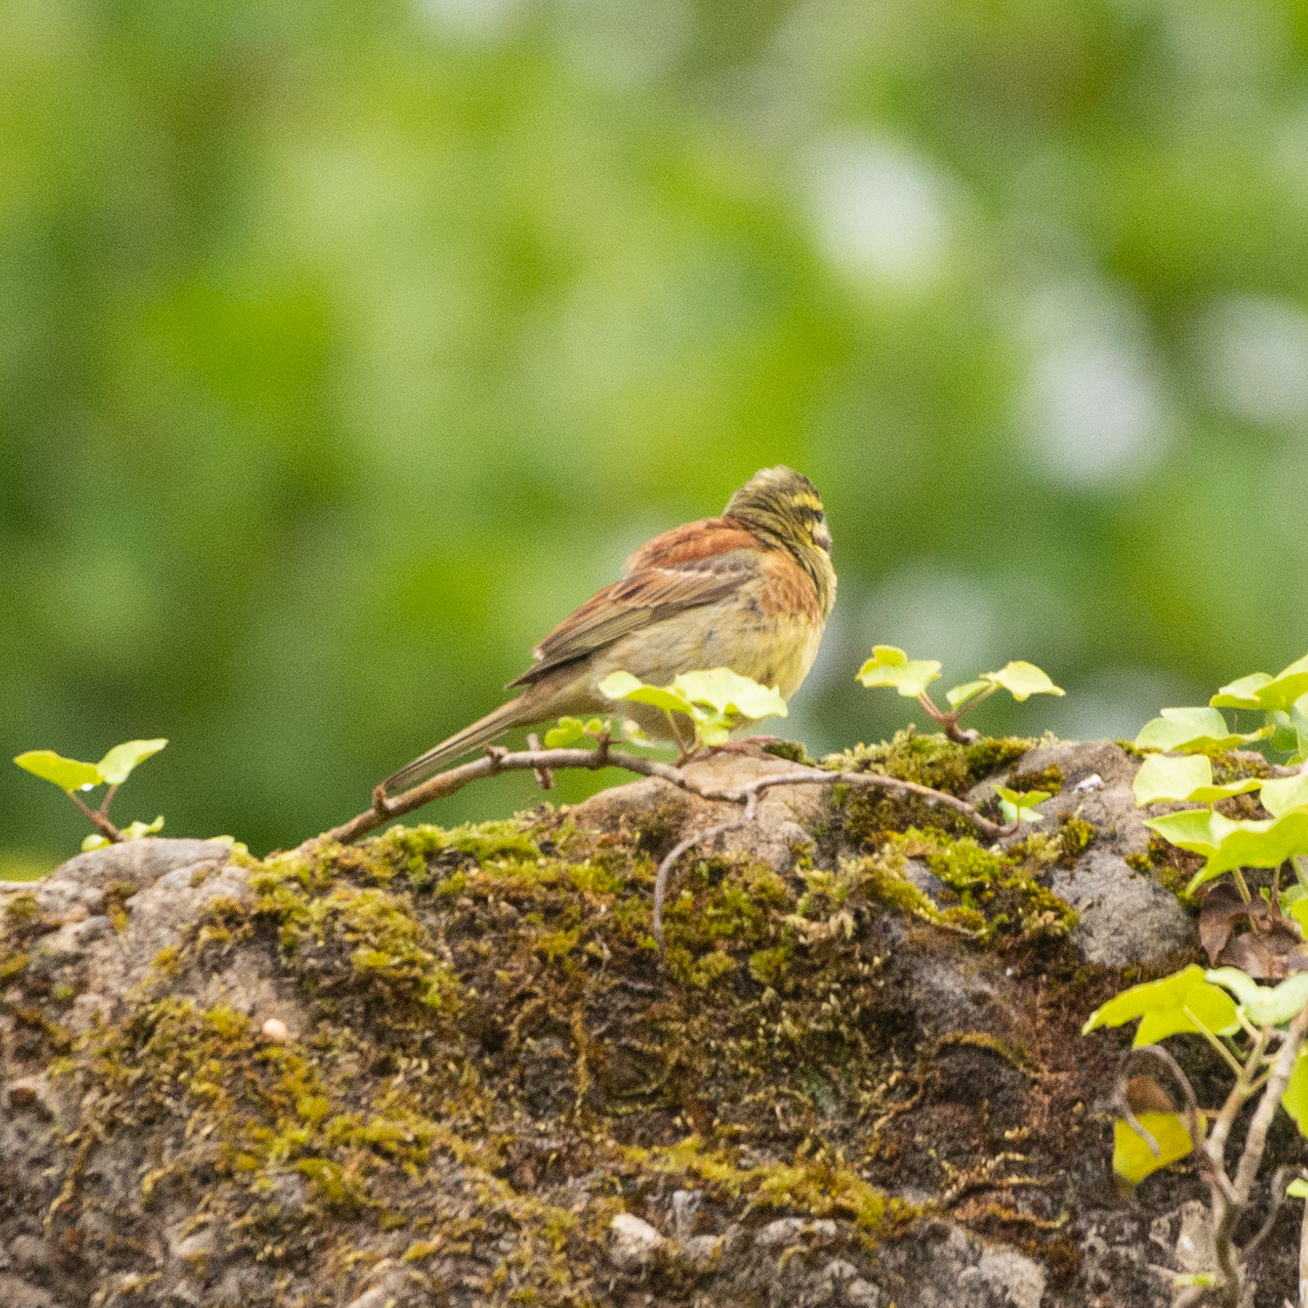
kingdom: Animalia
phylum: Chordata
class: Aves
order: Passeriformes
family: Emberizidae
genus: Emberiza
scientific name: Emberiza cirlus
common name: Cirl bunting
